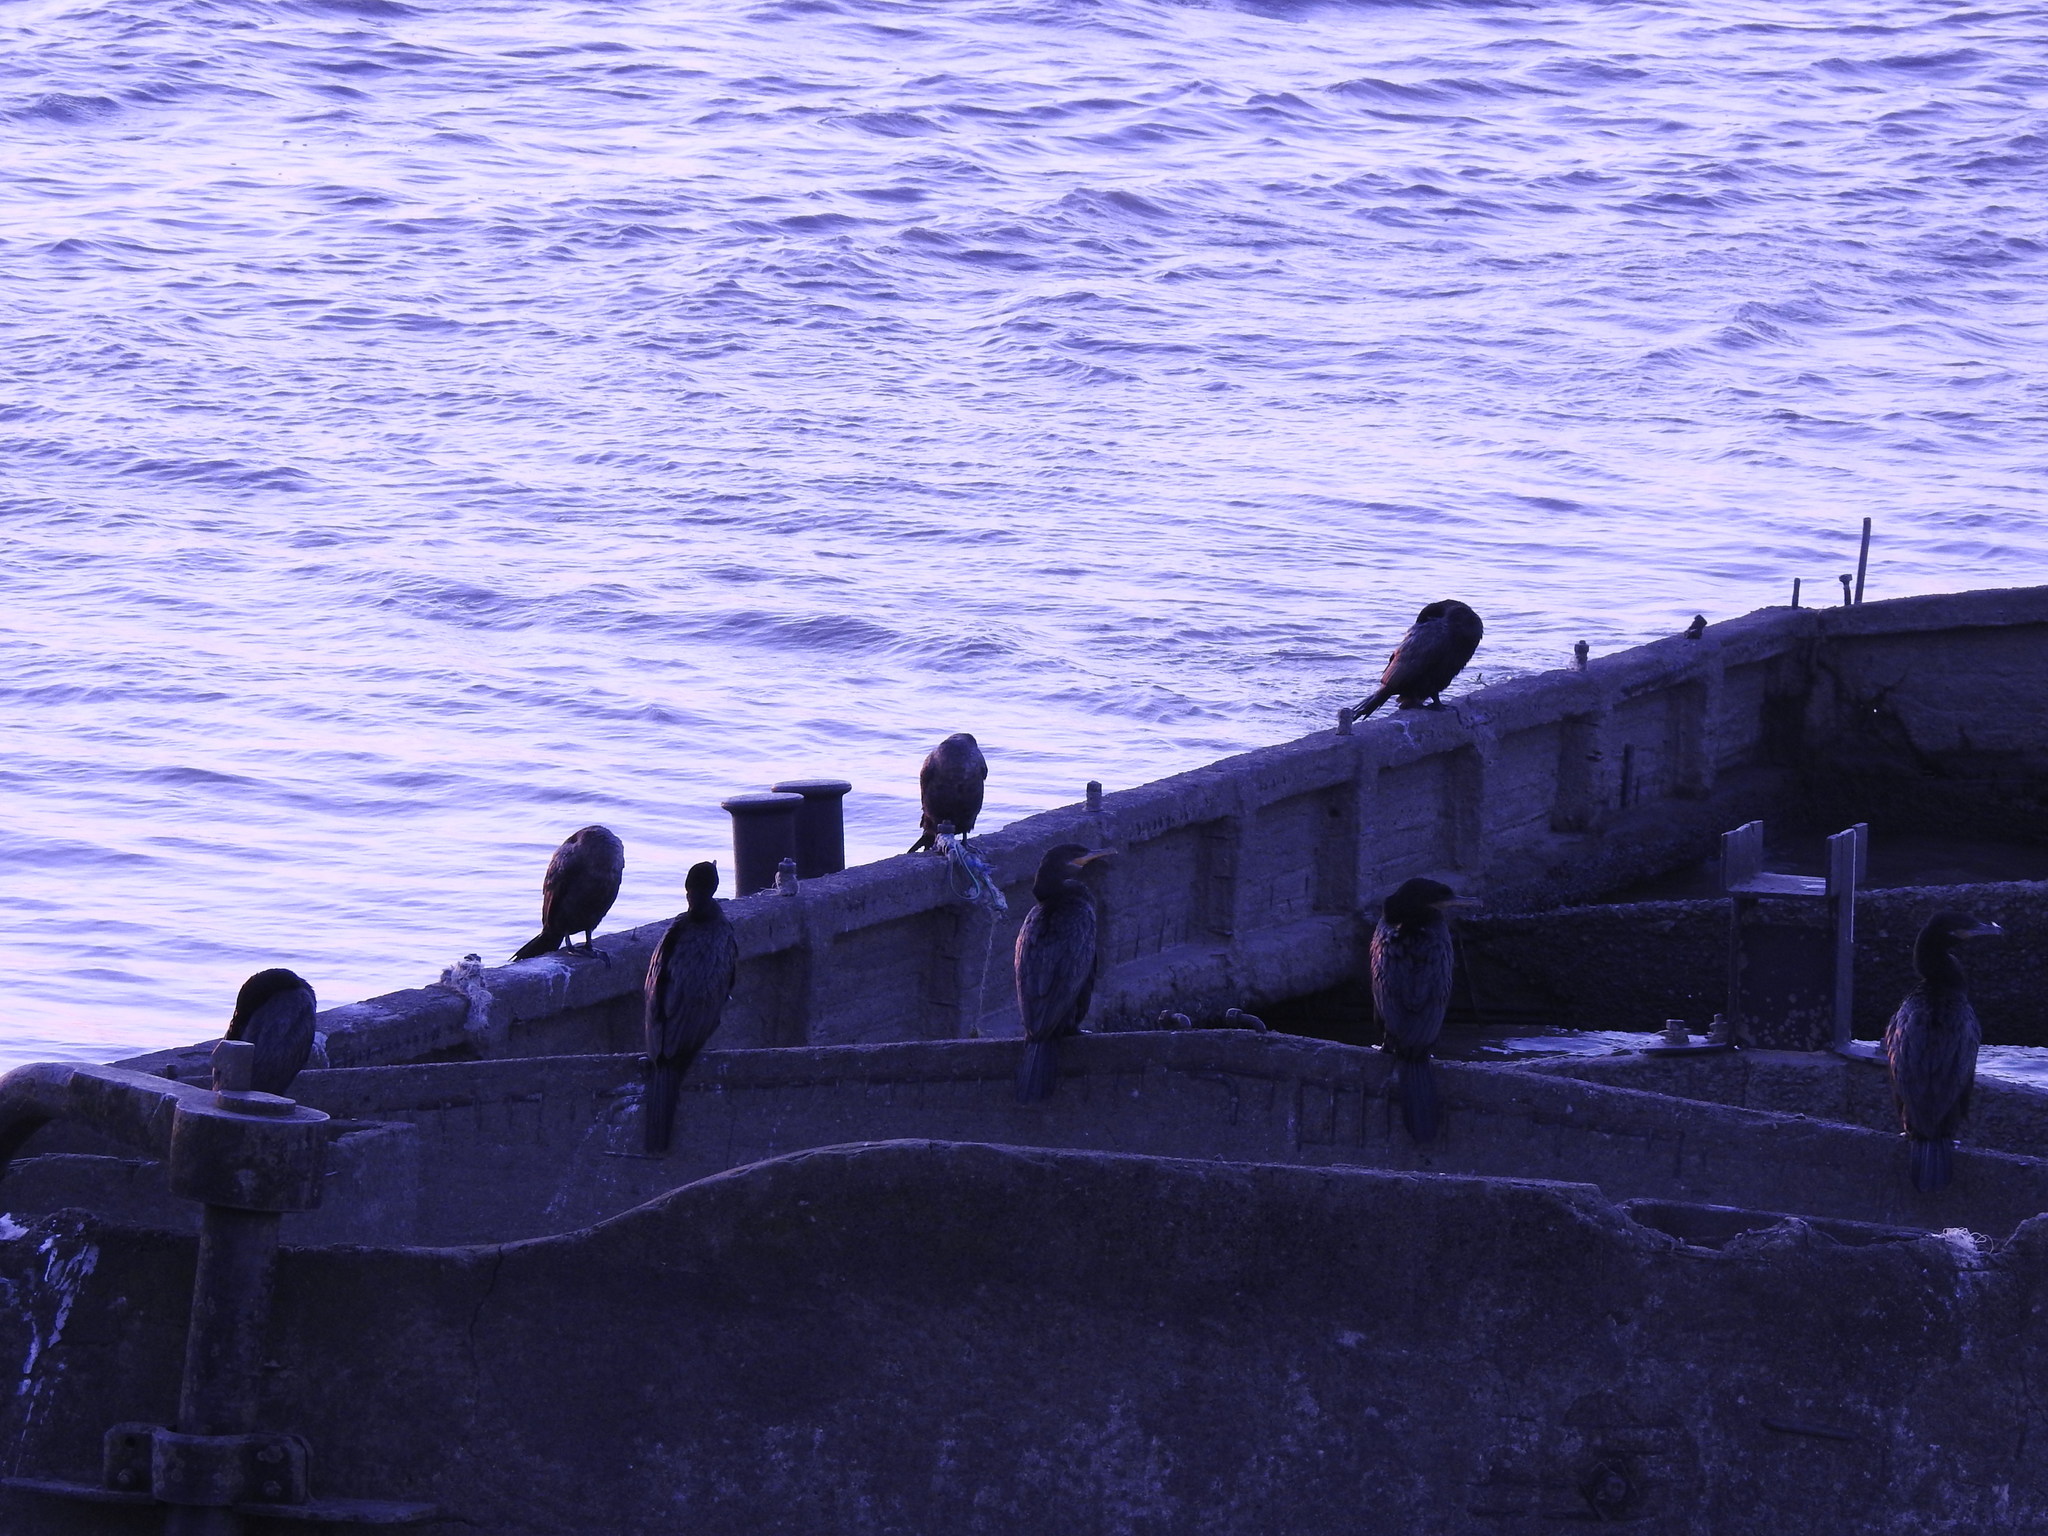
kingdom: Animalia
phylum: Chordata
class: Aves
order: Suliformes
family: Phalacrocoracidae
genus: Phalacrocorax
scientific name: Phalacrocorax brasilianus
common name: Neotropic cormorant
